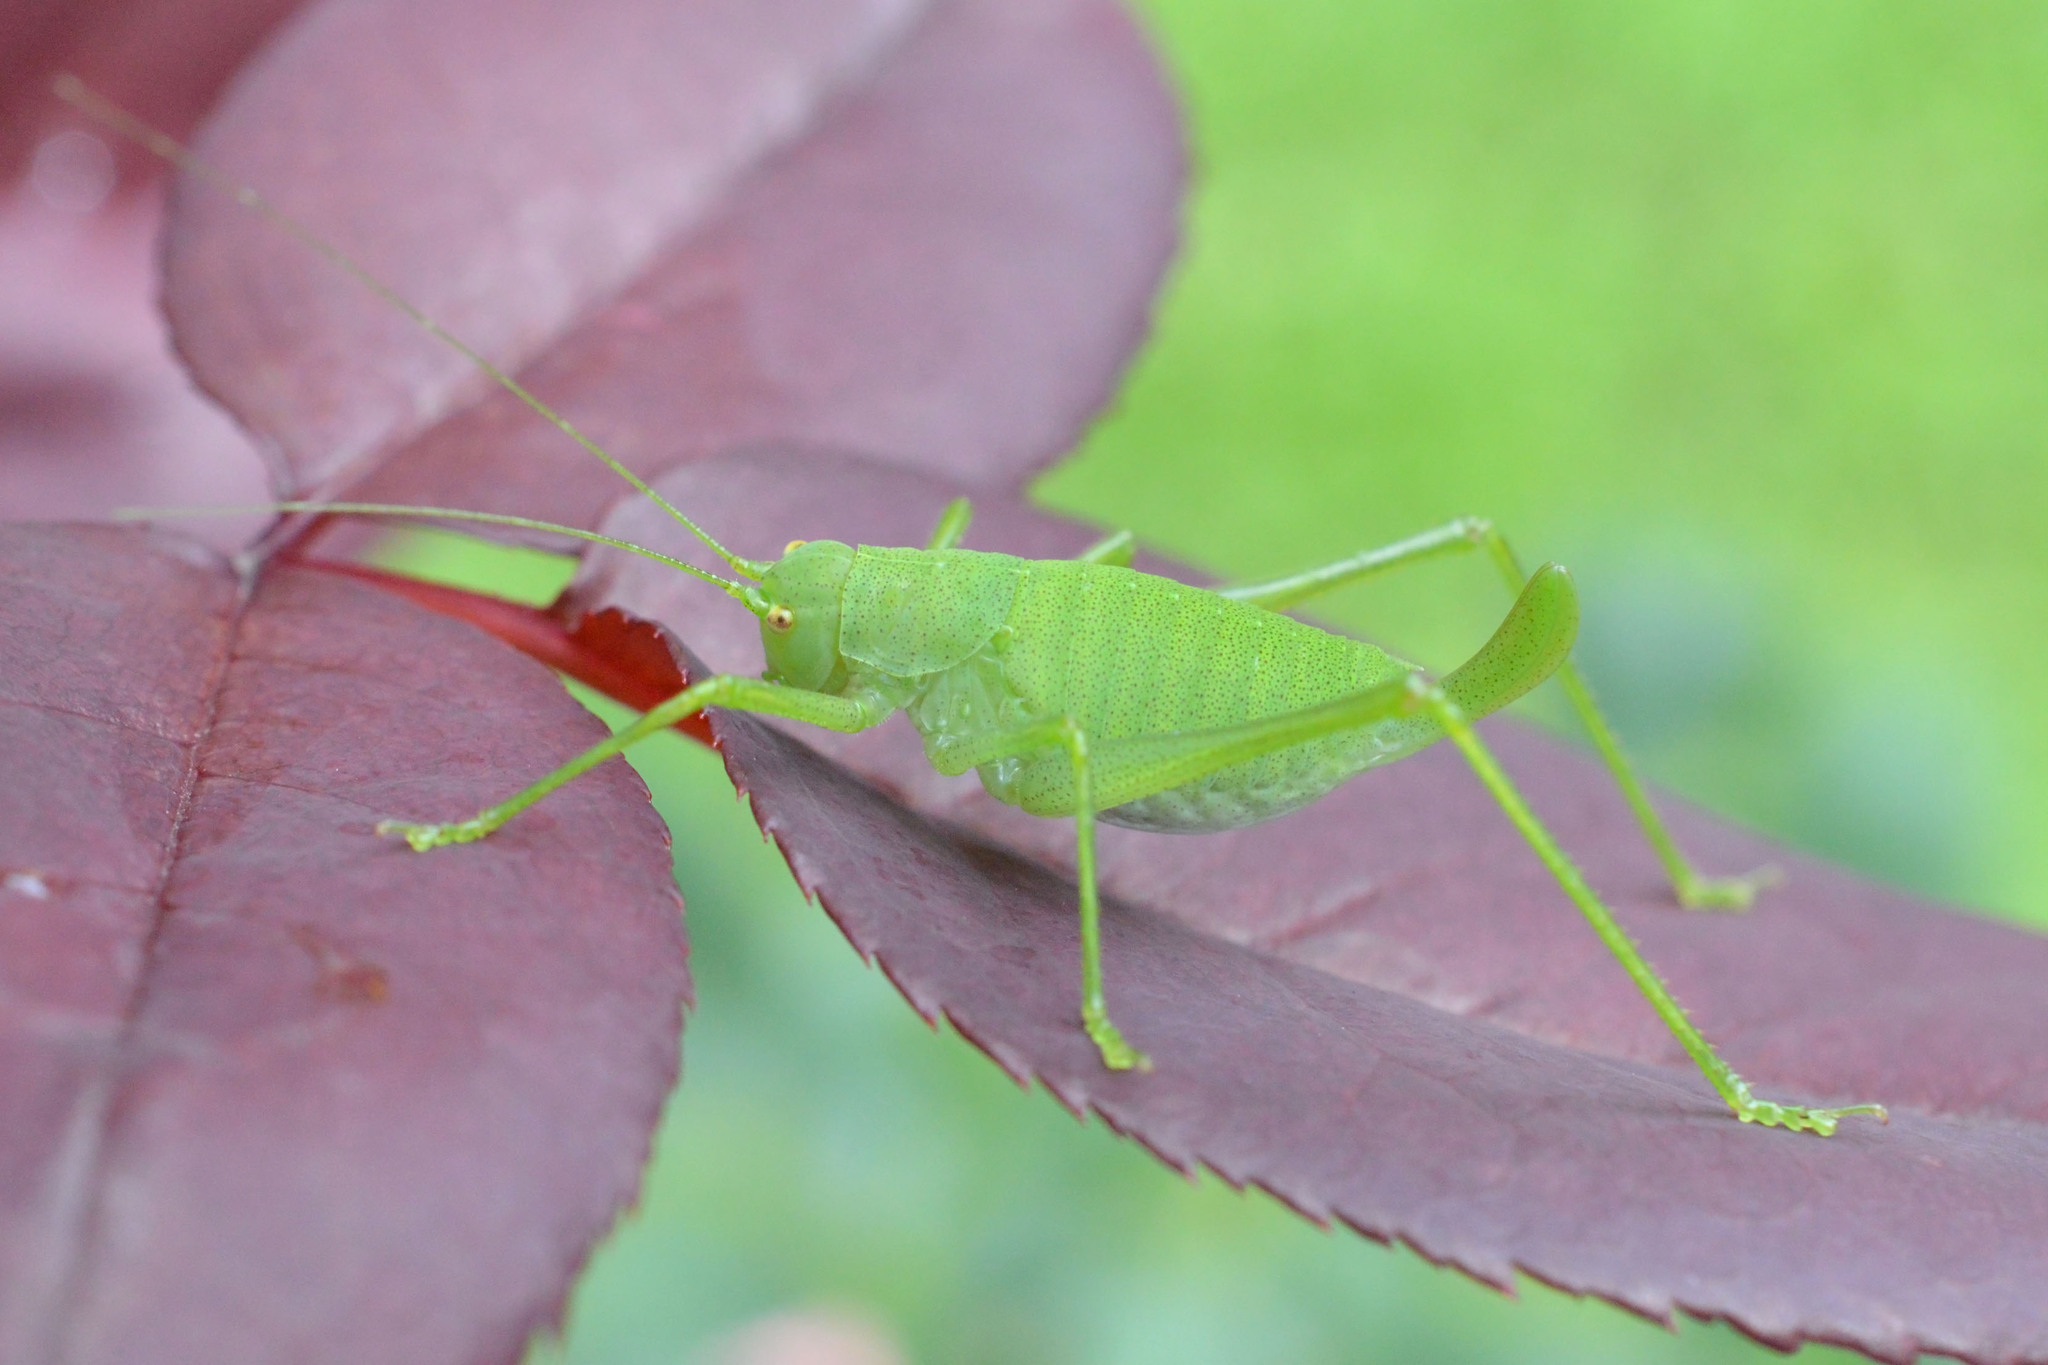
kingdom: Animalia
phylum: Arthropoda
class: Insecta
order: Orthoptera
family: Tettigoniidae
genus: Poecilimon
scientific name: Poecilimon schmidtii
